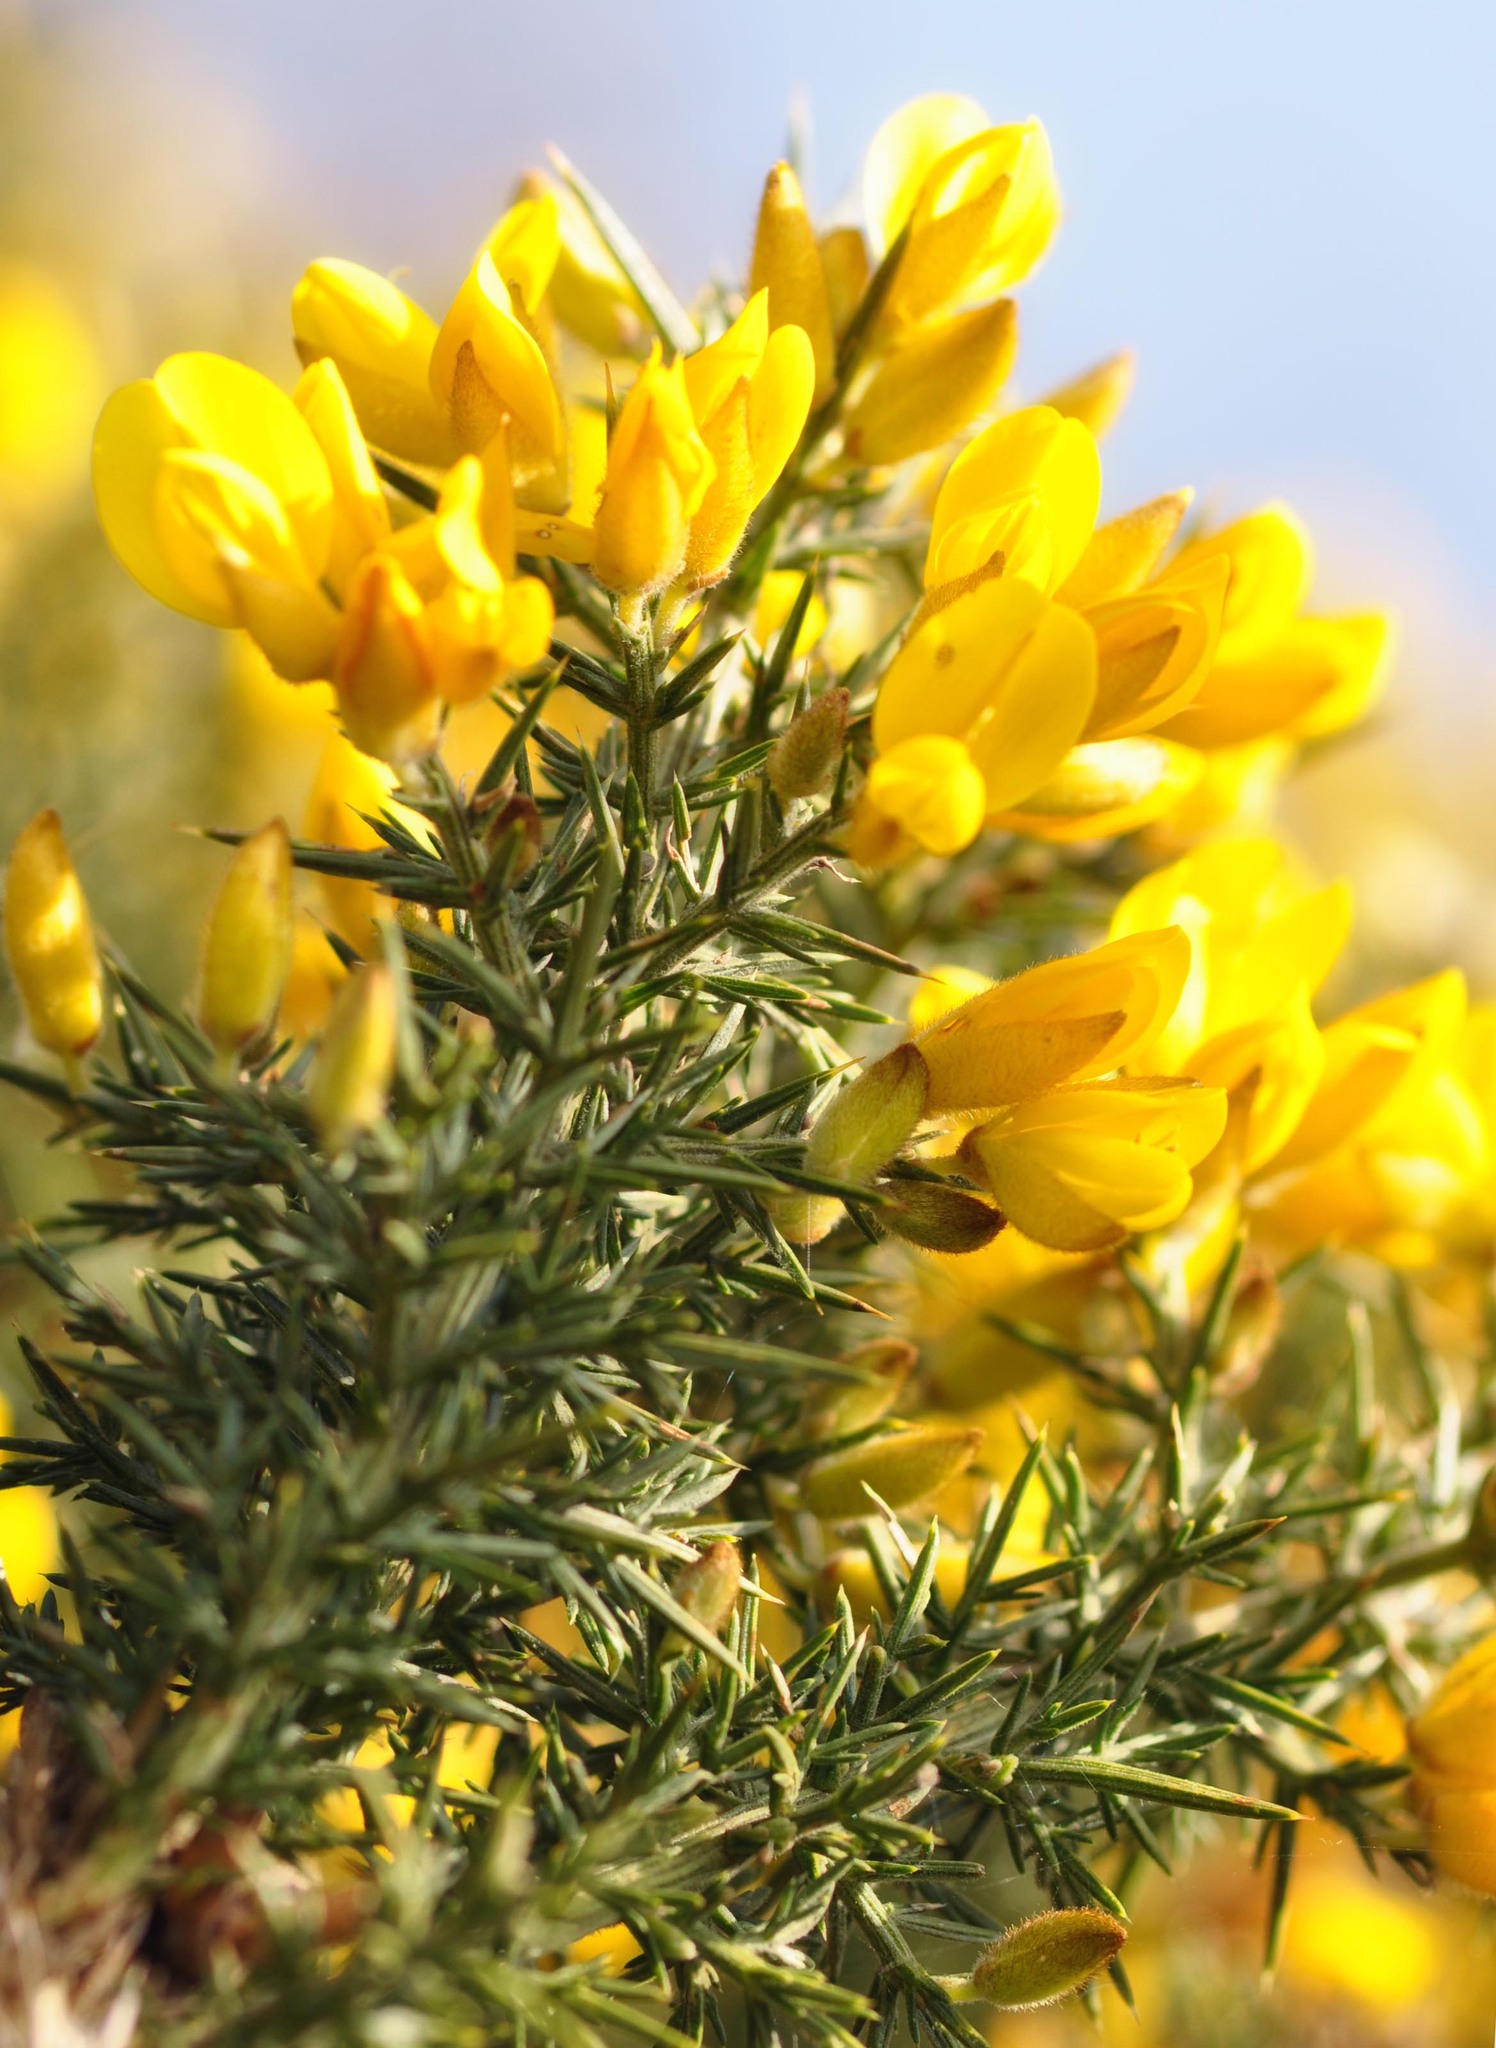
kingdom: Plantae
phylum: Tracheophyta
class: Magnoliopsida
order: Fabales
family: Fabaceae
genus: Ulex
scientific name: Ulex europaeus
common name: Common gorse
